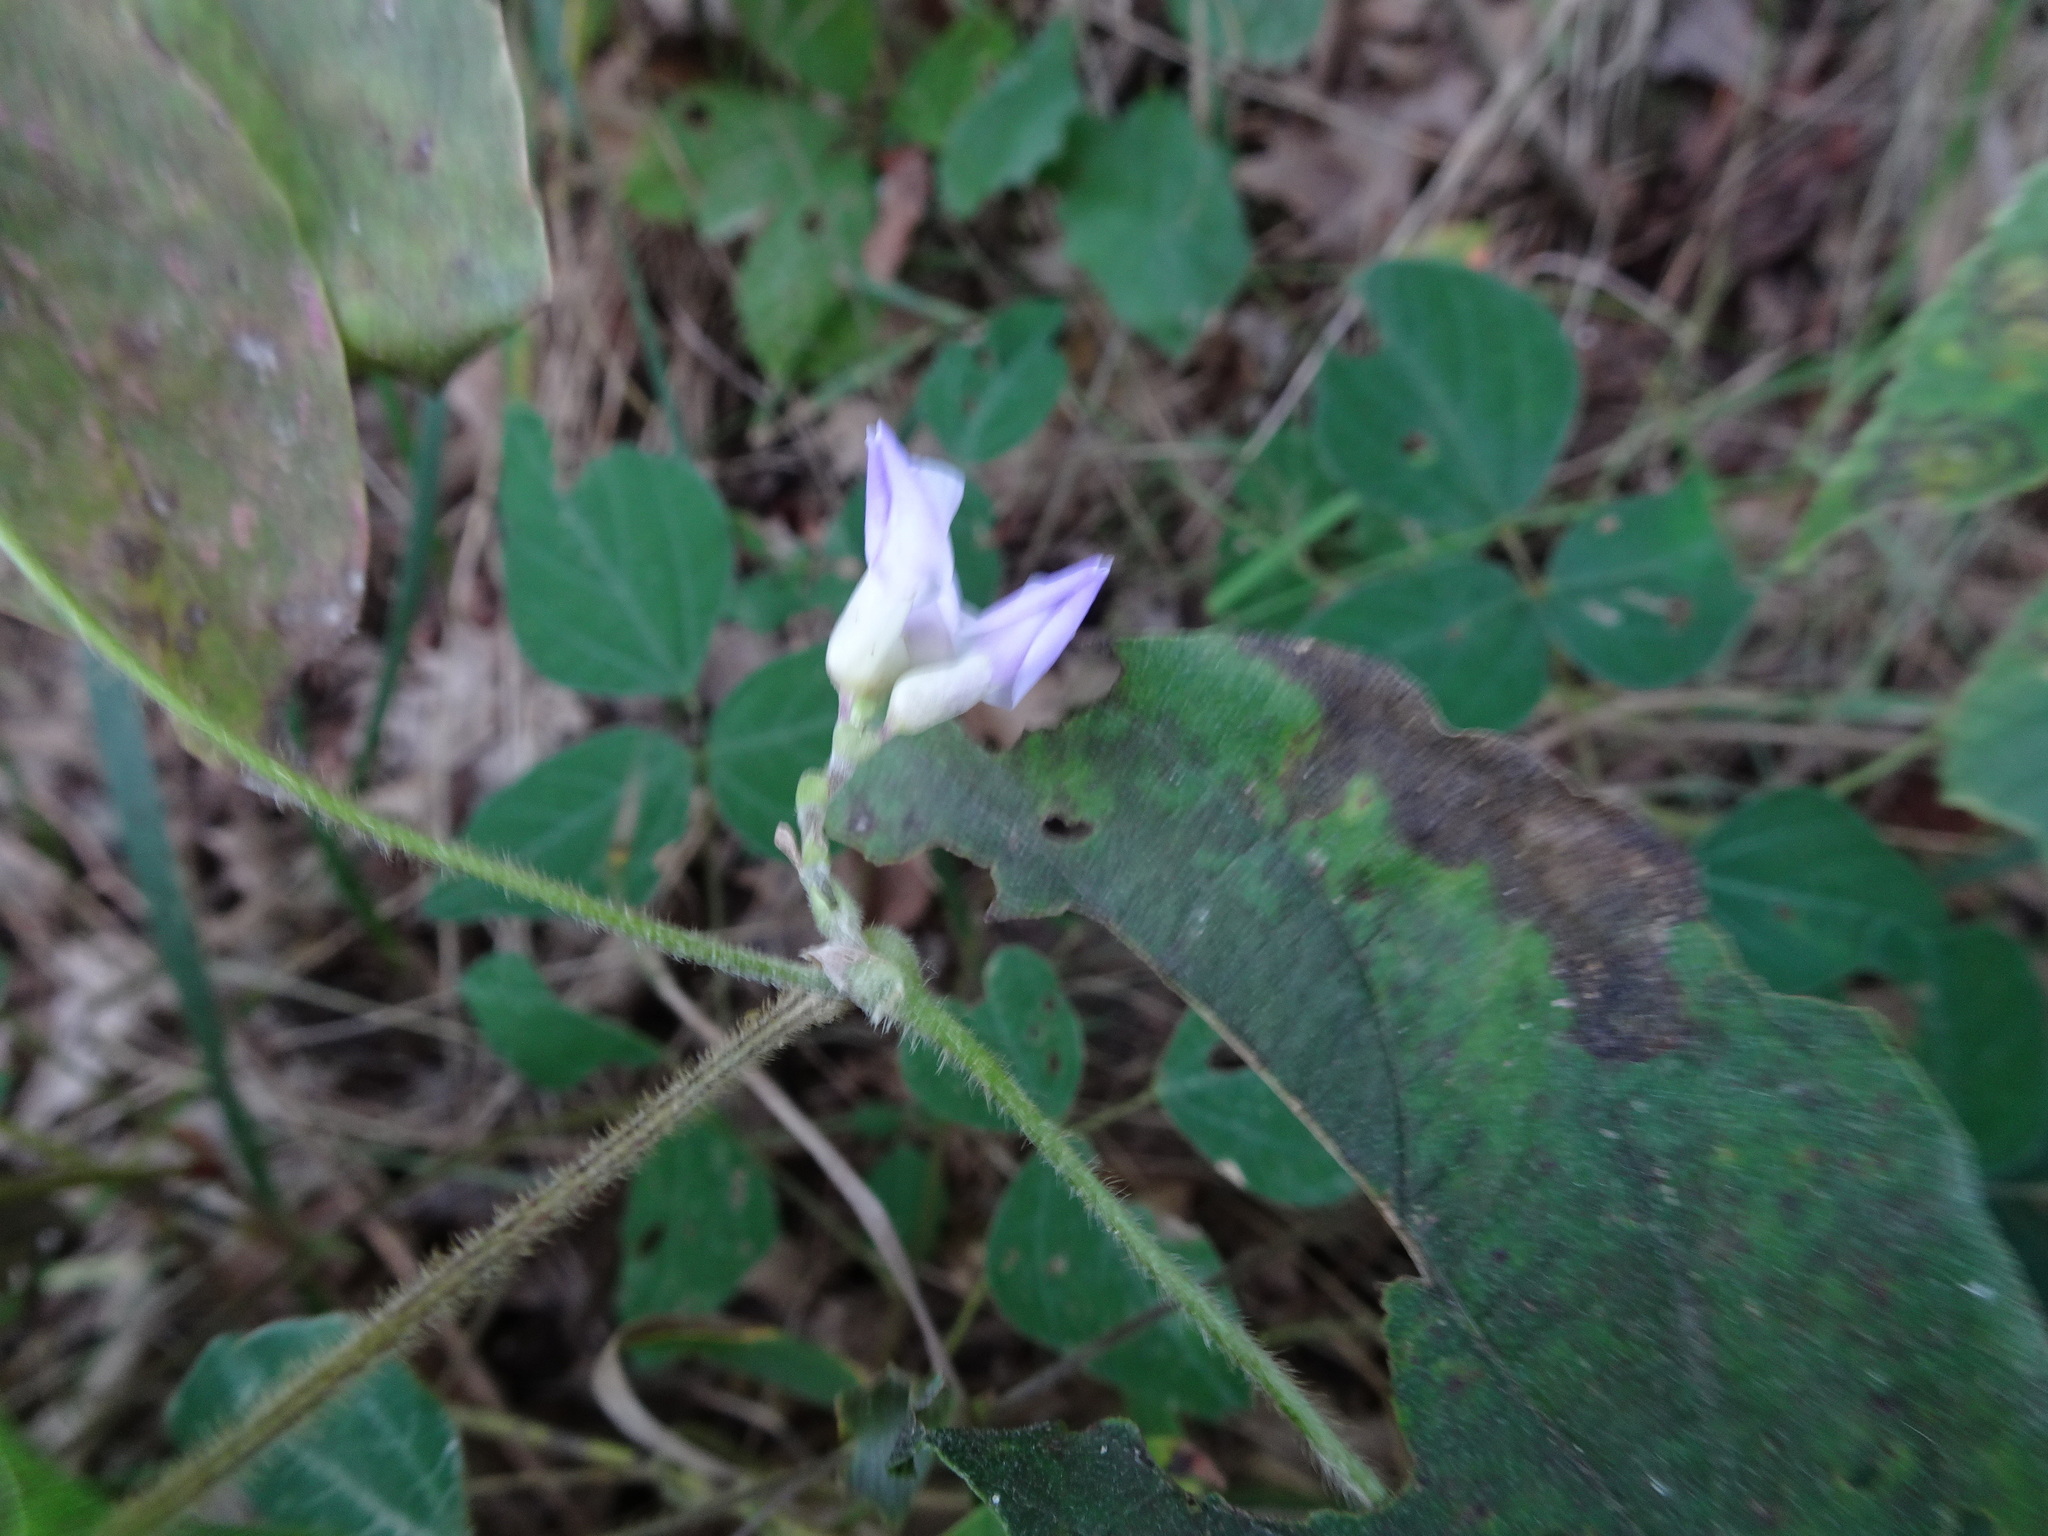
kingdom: Plantae
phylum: Tracheophyta
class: Magnoliopsida
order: Fabales
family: Fabaceae
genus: Amphicarpaea
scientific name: Amphicarpaea bracteata
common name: American hog peanut
